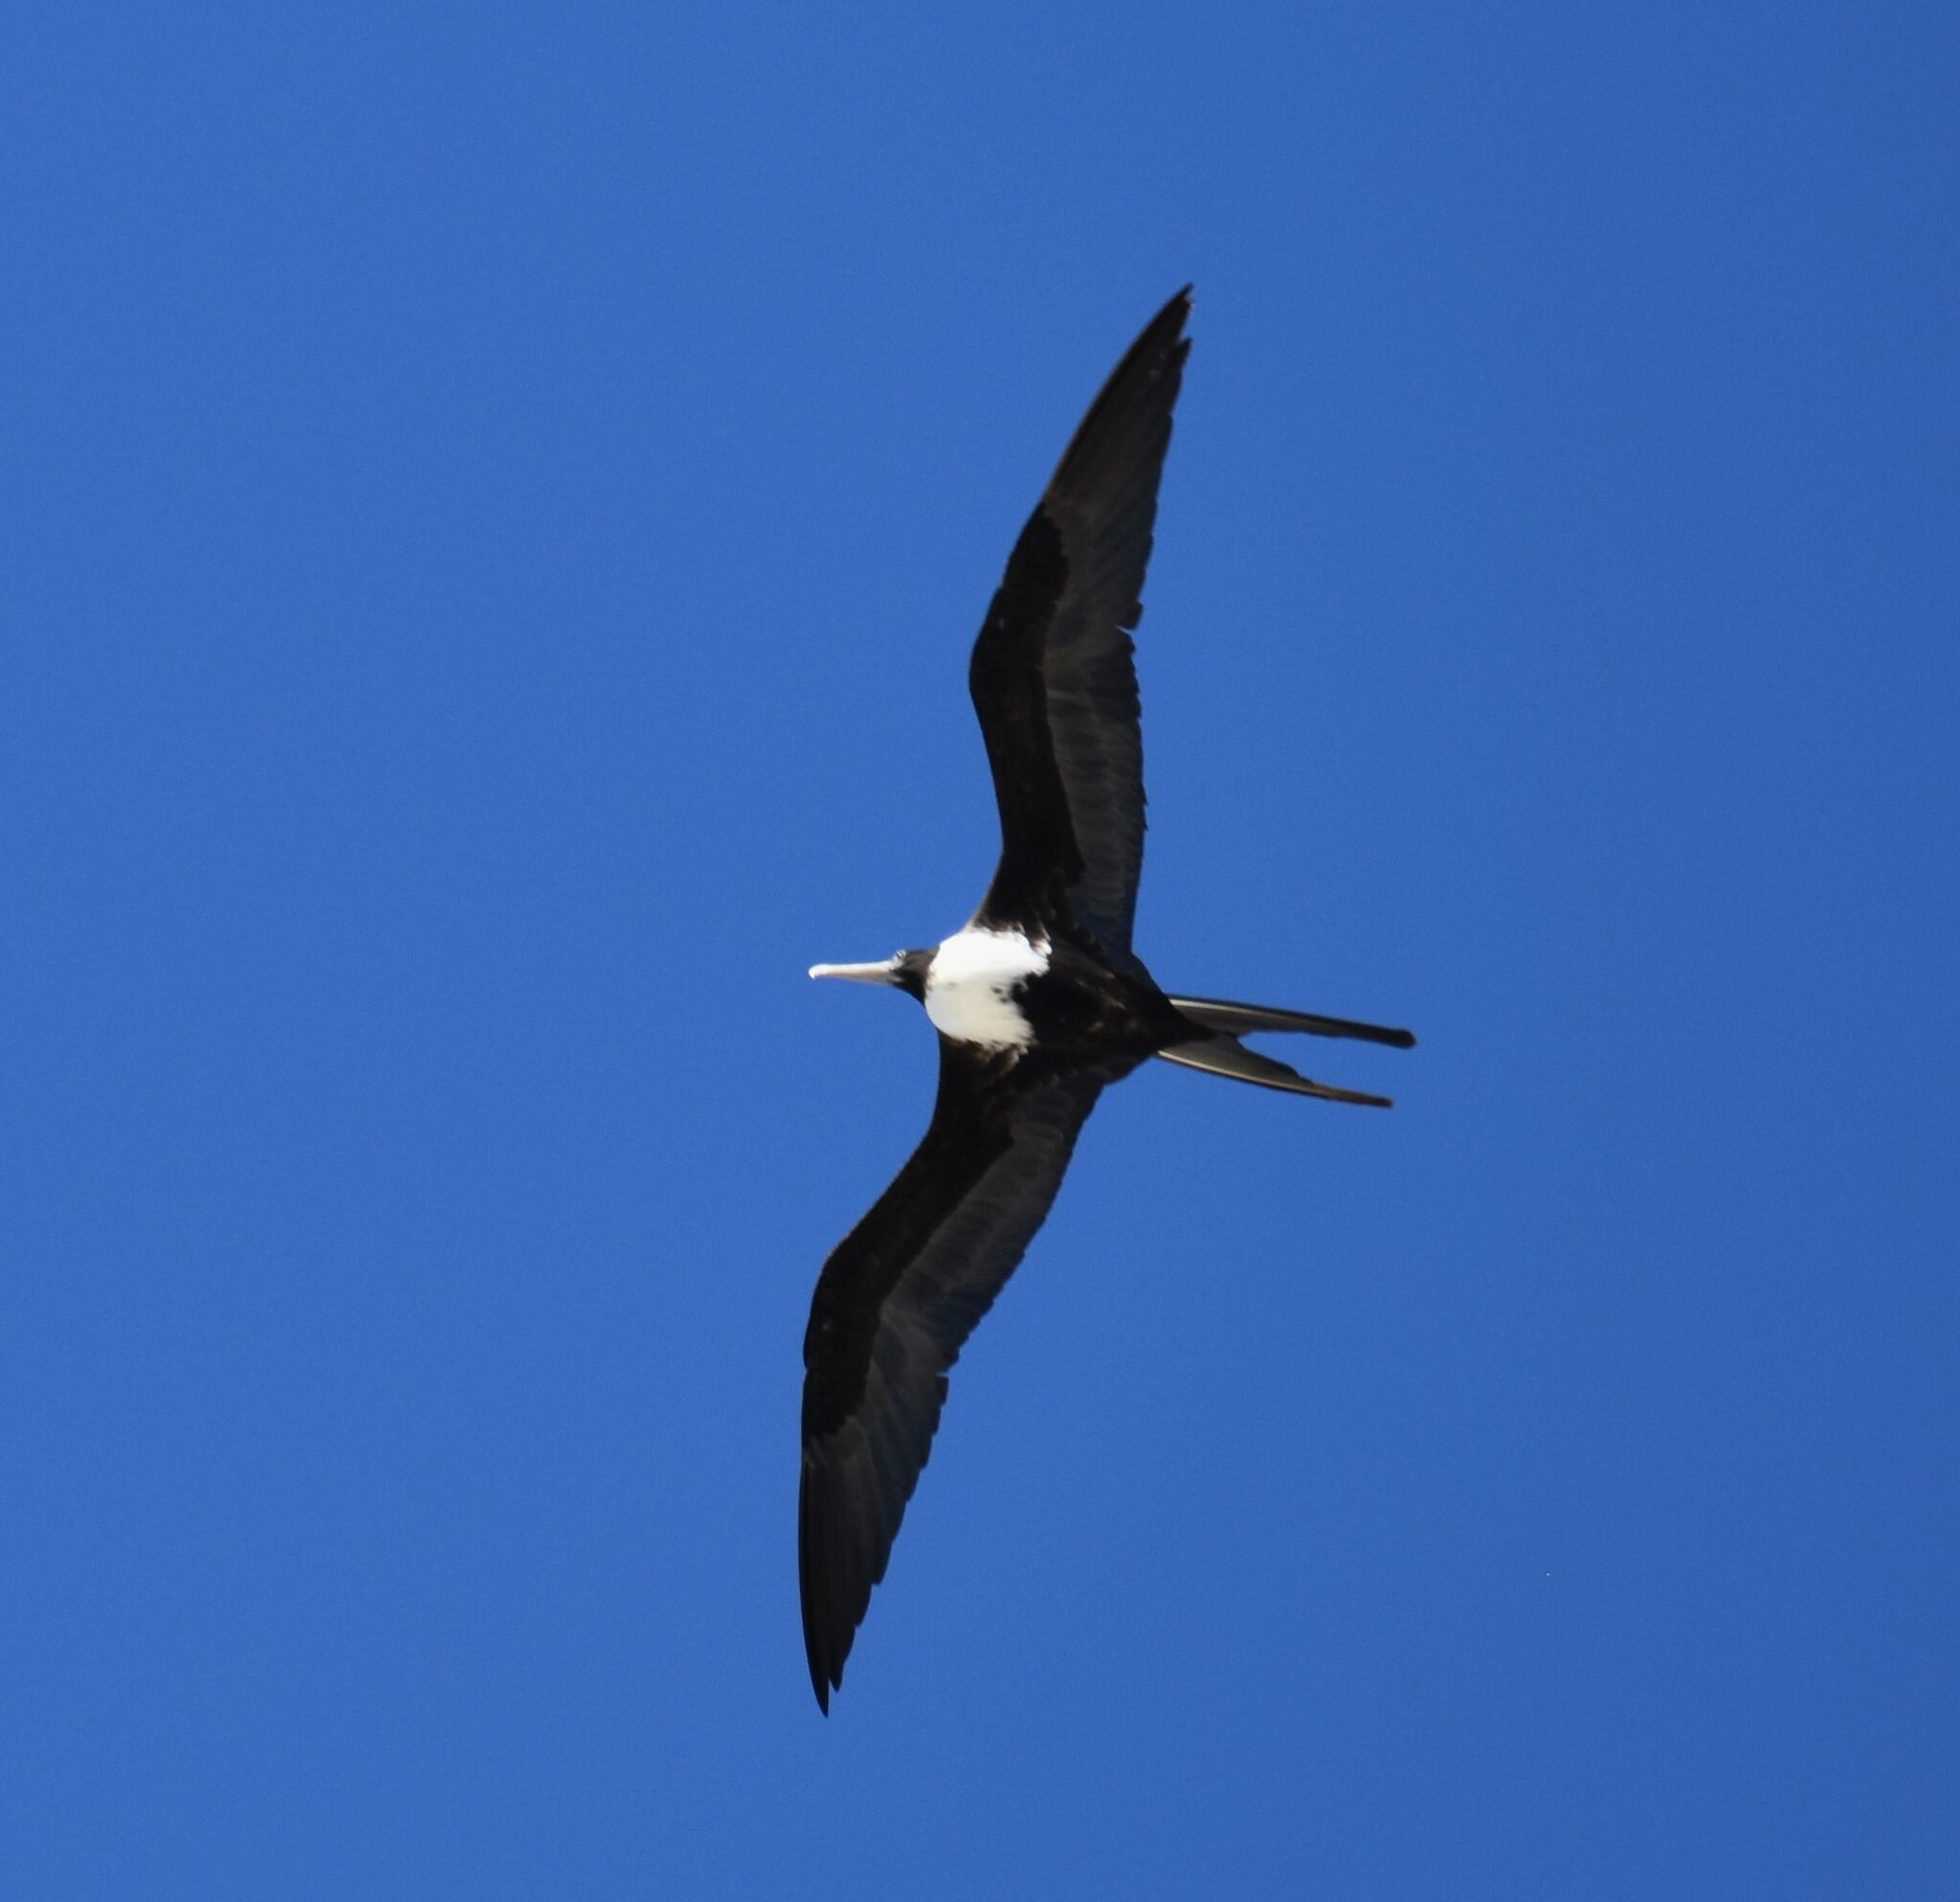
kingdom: Animalia
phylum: Chordata
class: Aves
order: Suliformes
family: Fregatidae
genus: Fregata
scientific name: Fregata magnificens
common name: Magnificent frigatebird
